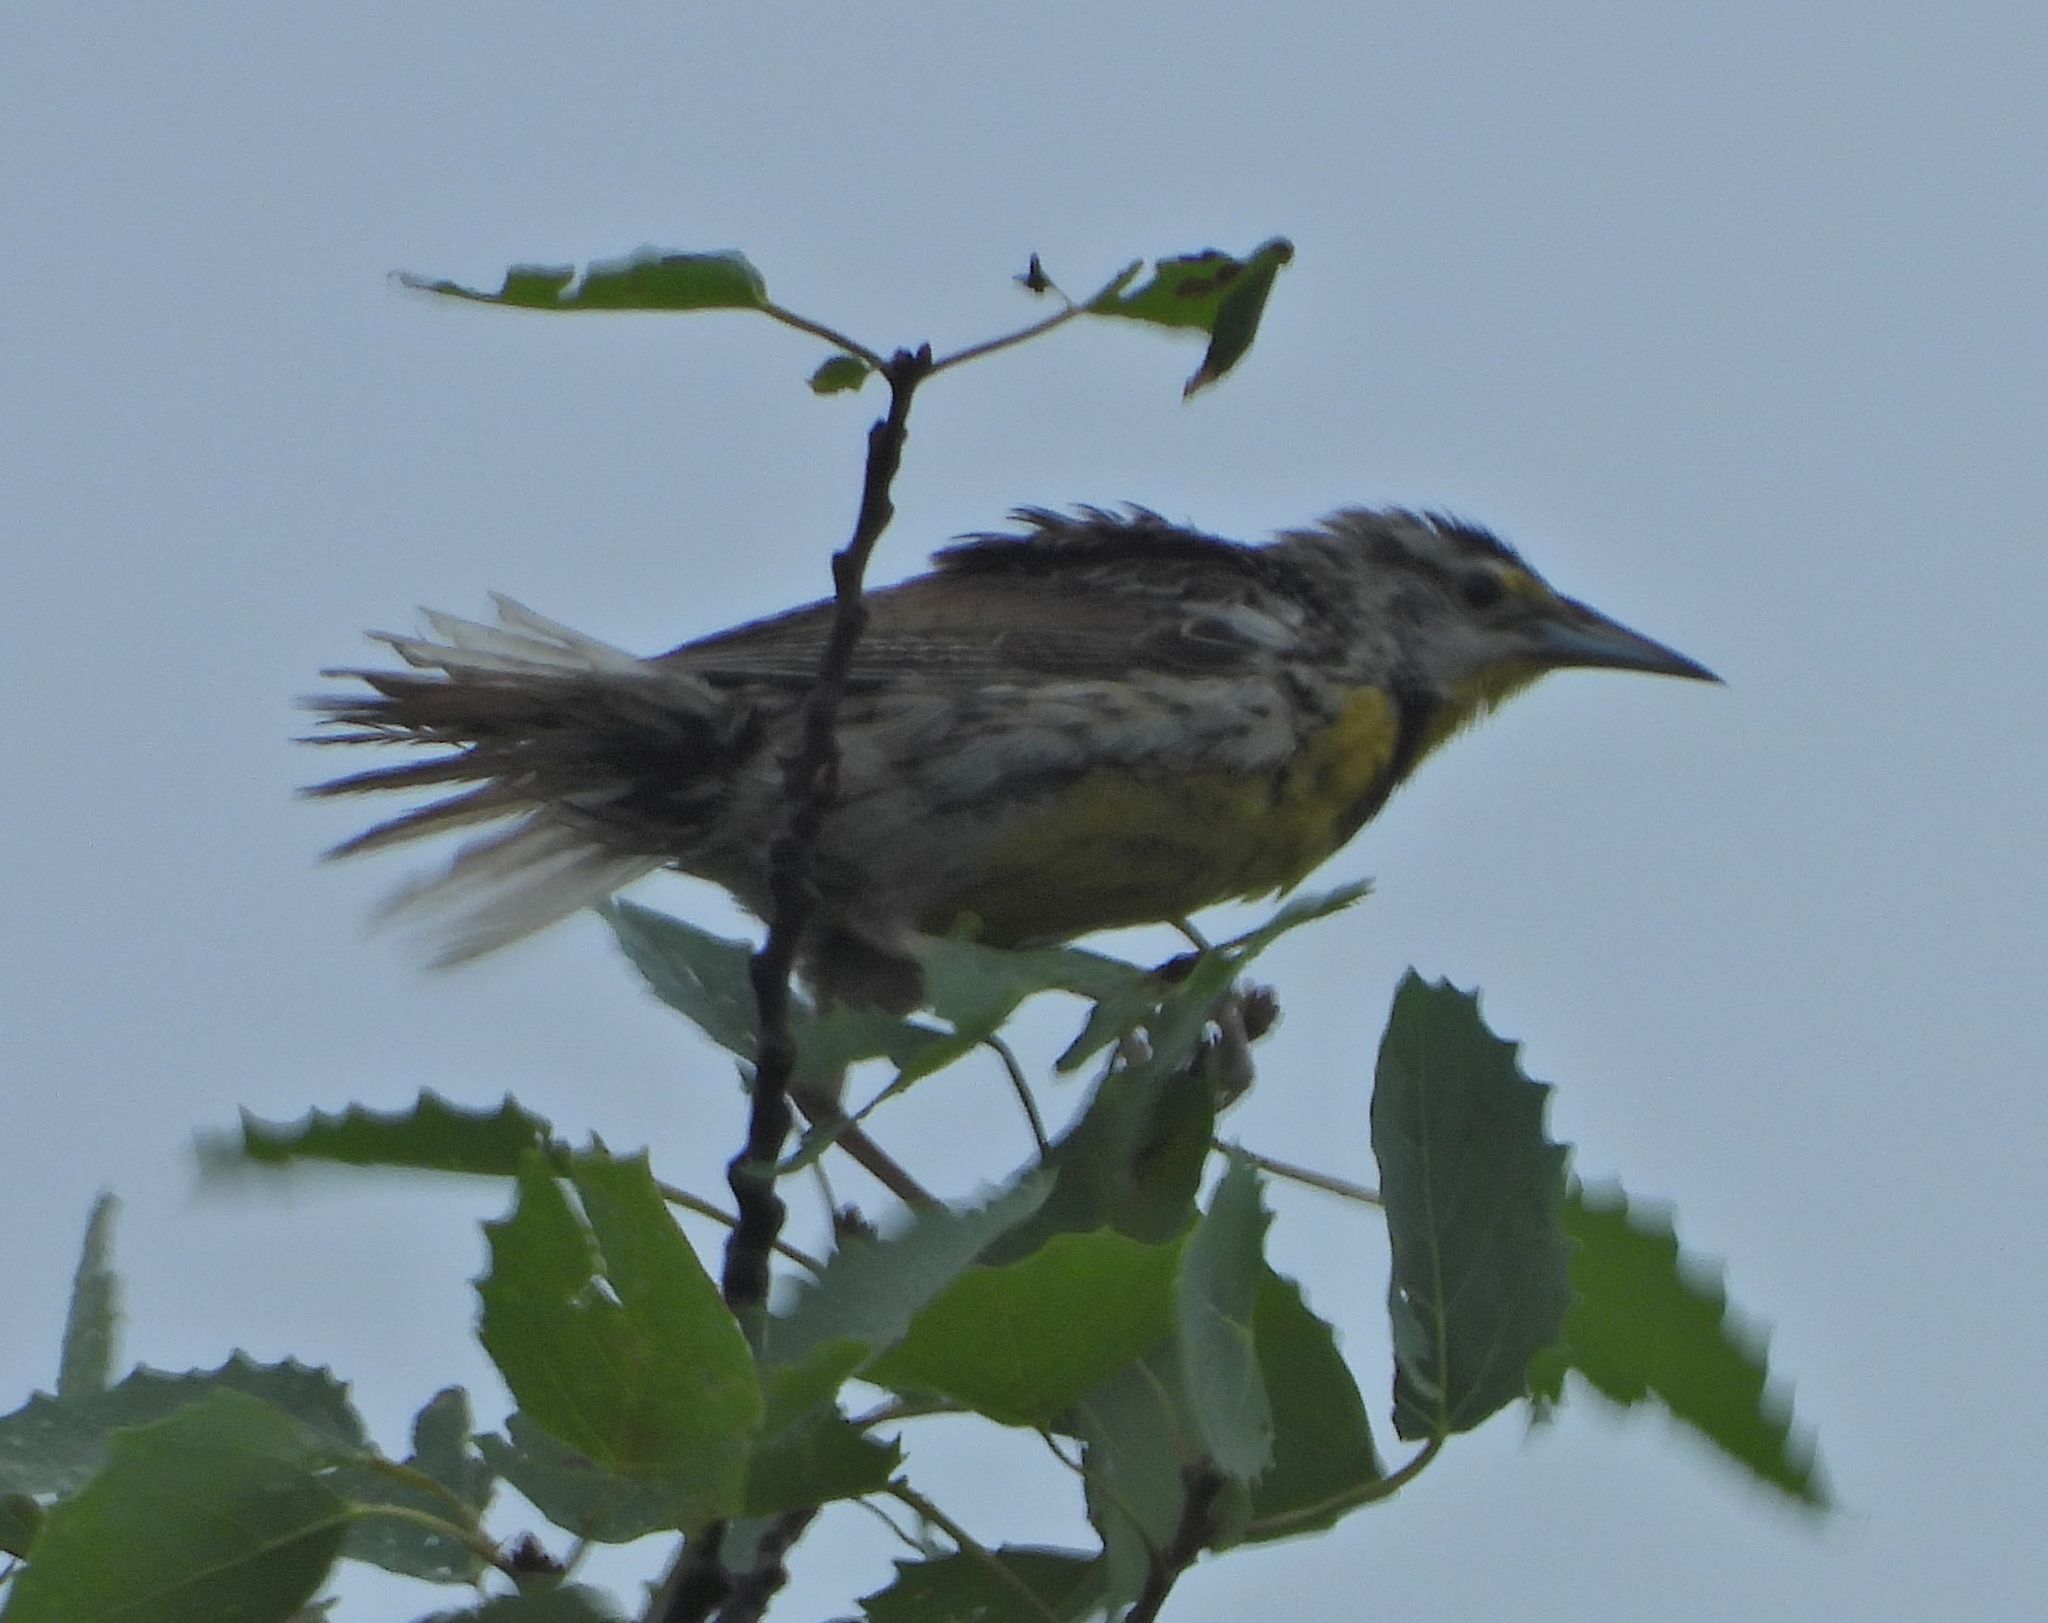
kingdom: Animalia
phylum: Chordata
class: Aves
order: Passeriformes
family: Icteridae
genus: Sturnella
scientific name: Sturnella magna
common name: Eastern meadowlark
